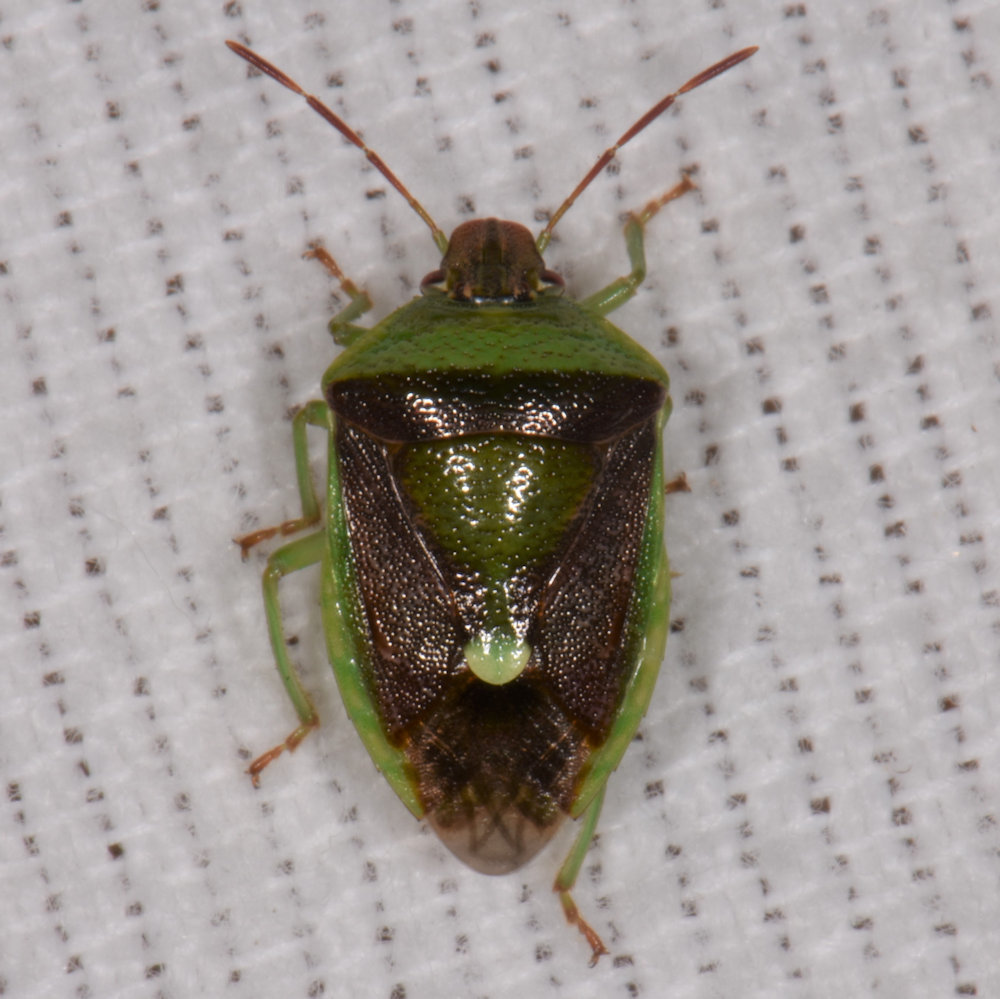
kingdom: Animalia
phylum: Arthropoda
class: Insecta
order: Hemiptera
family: Pentatomidae
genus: Banasa
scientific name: Banasa dimidiata
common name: Green burgundy stink bug
